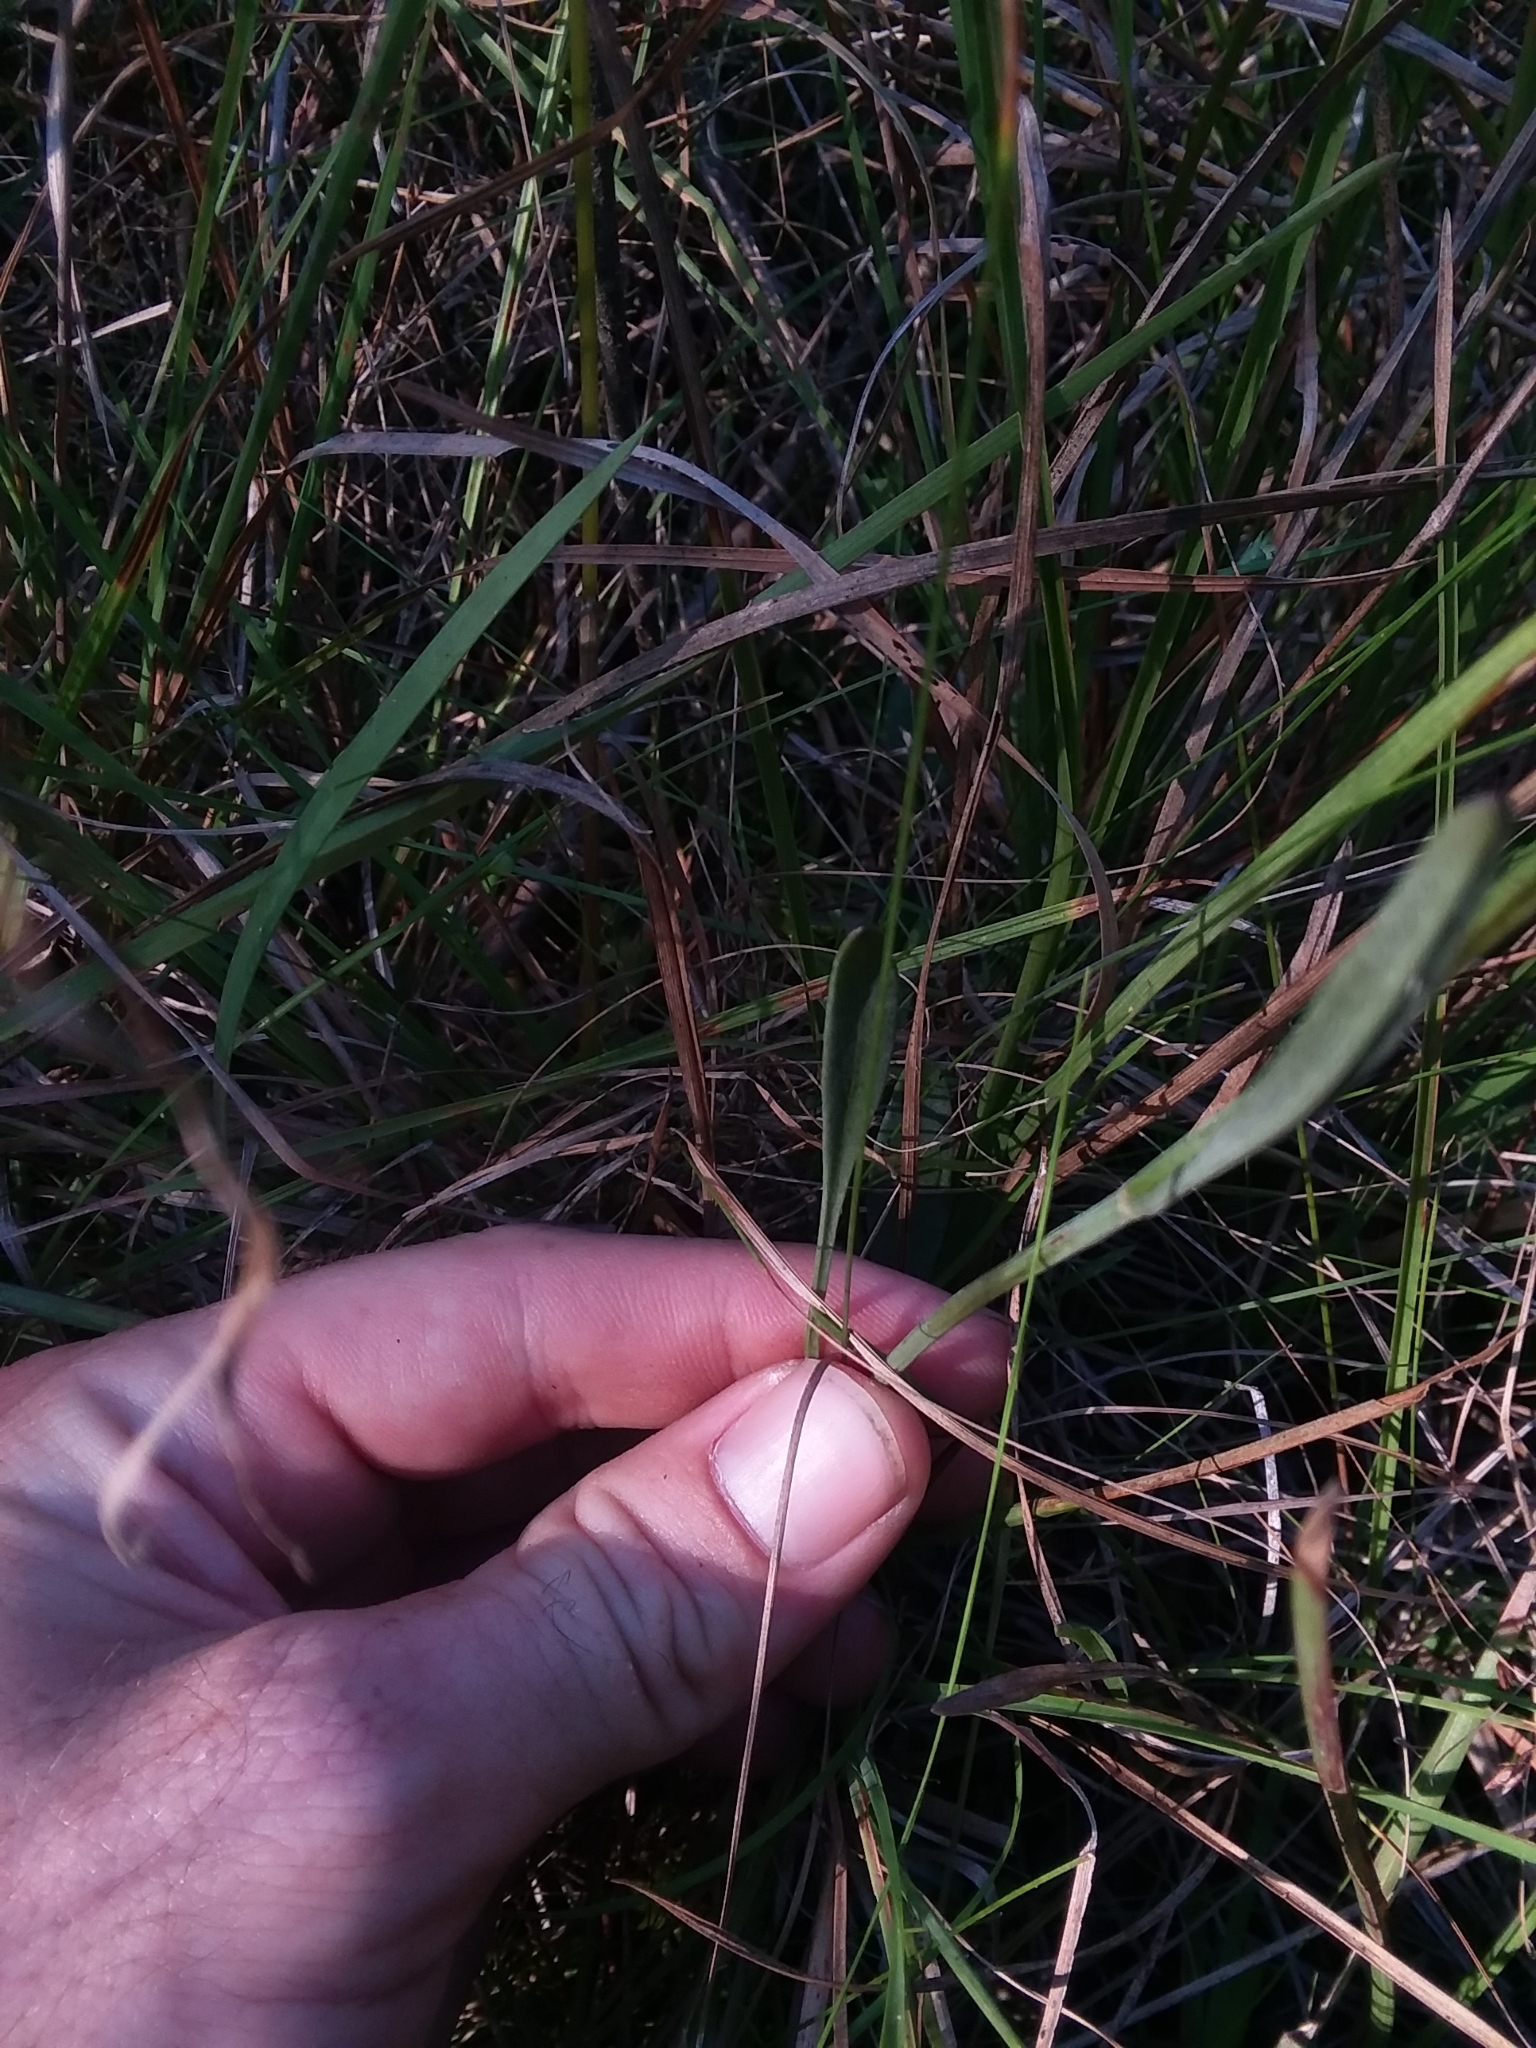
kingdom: Plantae
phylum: Tracheophyta
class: Magnoliopsida
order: Asterales
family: Asteraceae
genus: Coreopsis
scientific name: Coreopsis gladiata
